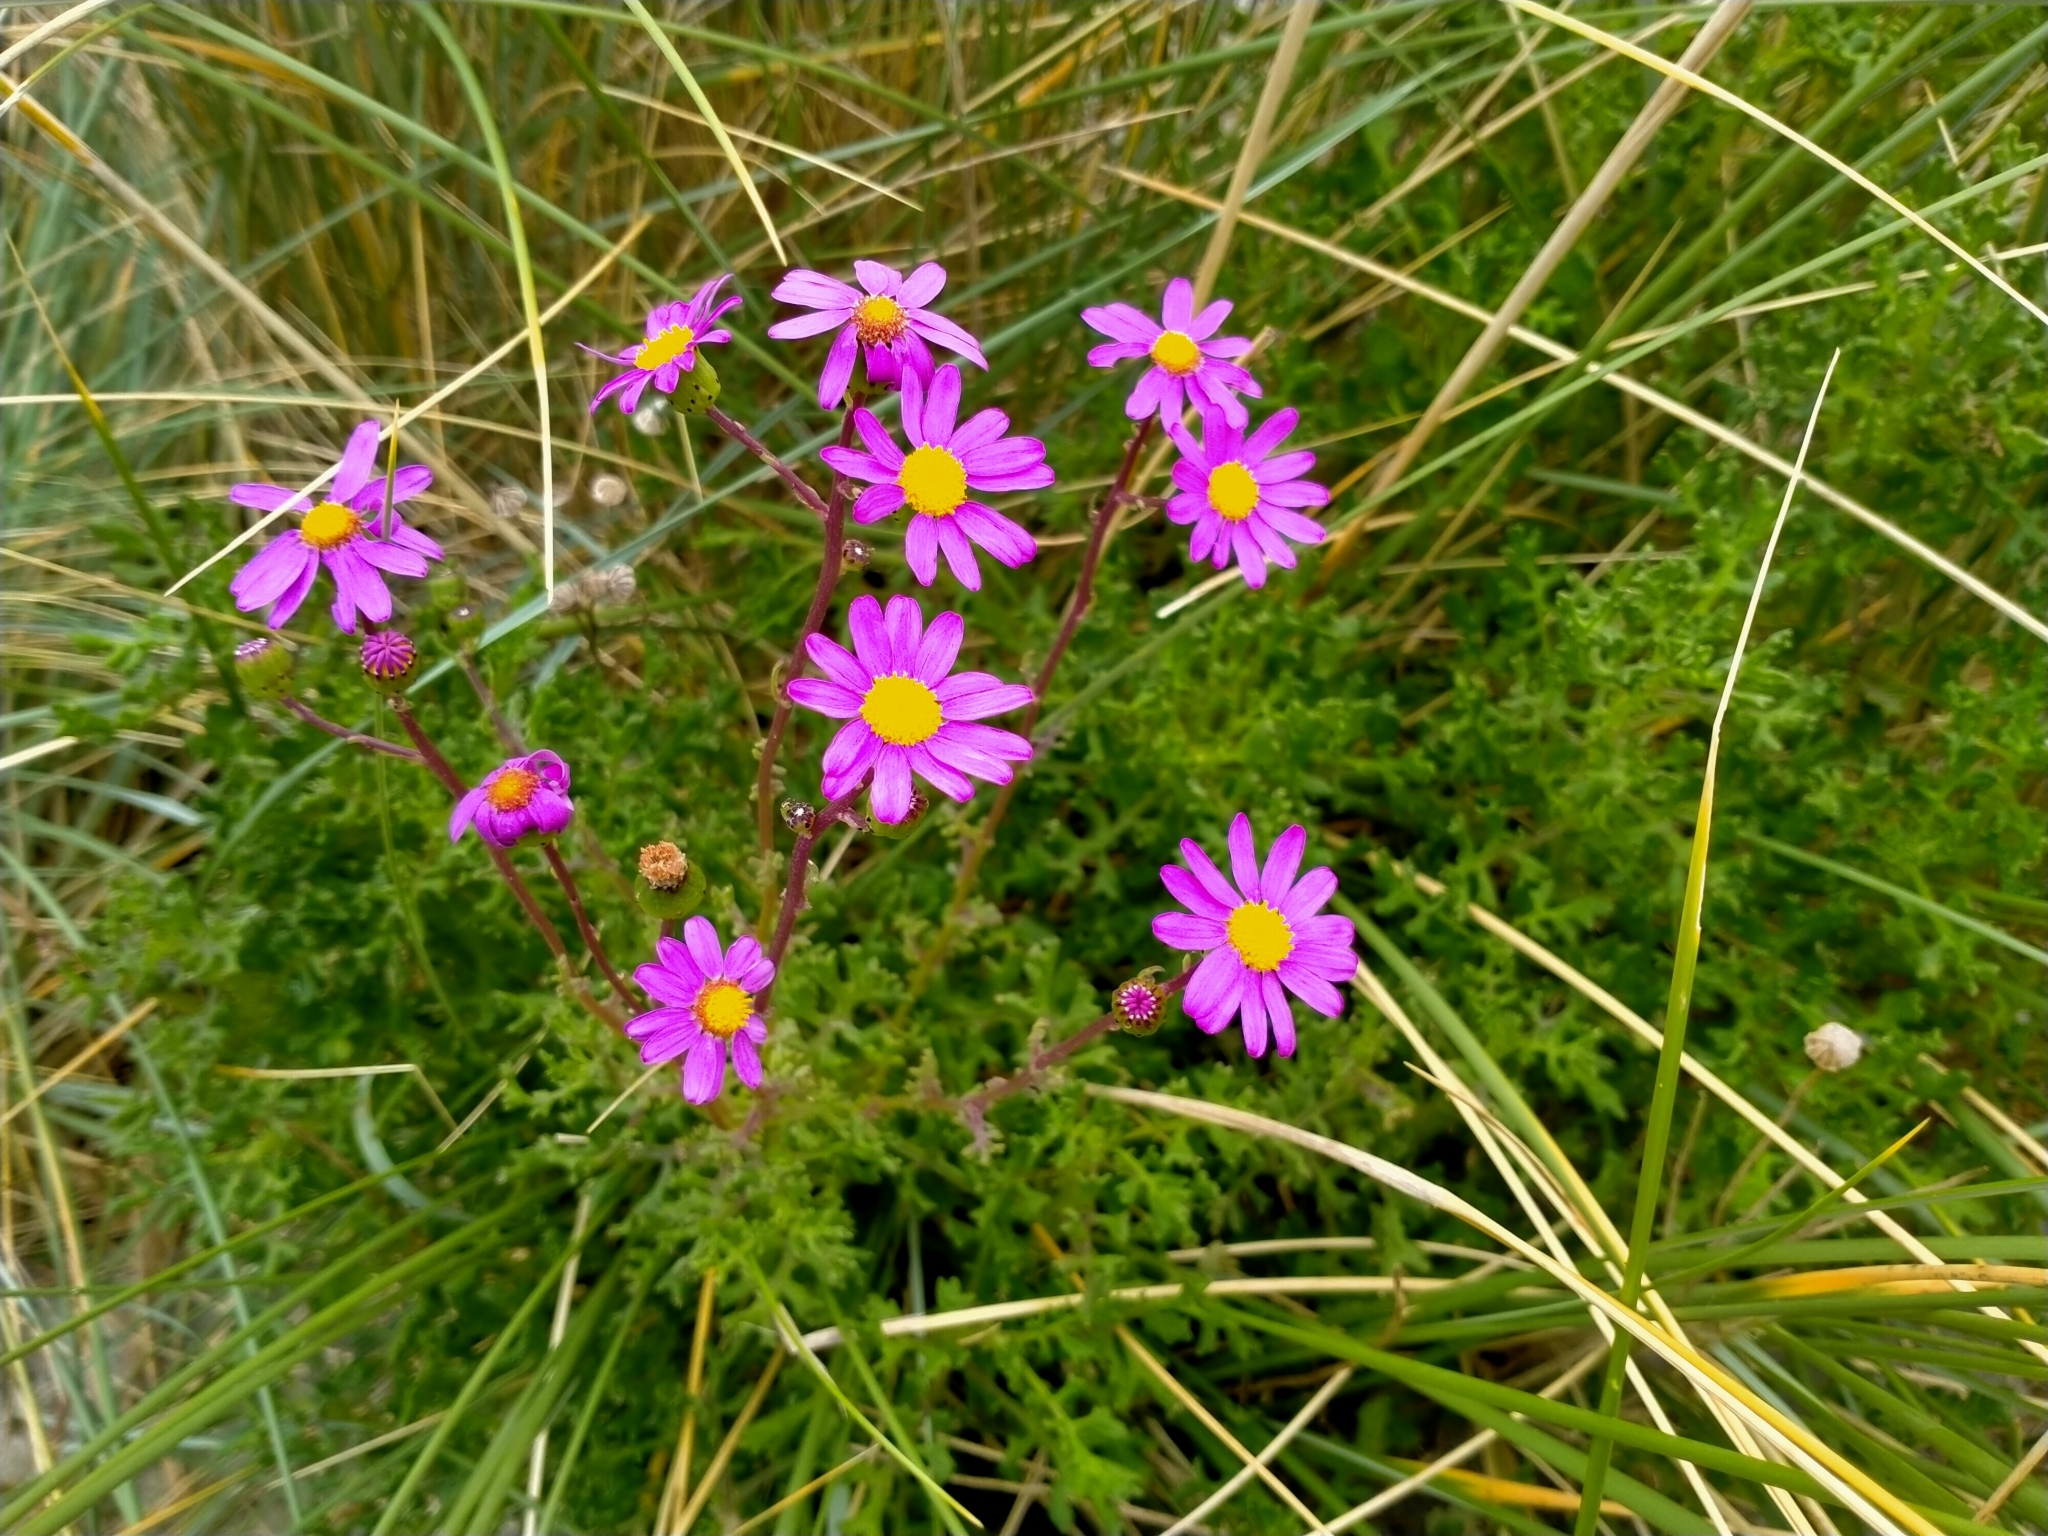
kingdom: Plantae
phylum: Tracheophyta
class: Magnoliopsida
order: Asterales
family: Asteraceae
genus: Senecio
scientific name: Senecio elegans
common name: Purple groundsel
